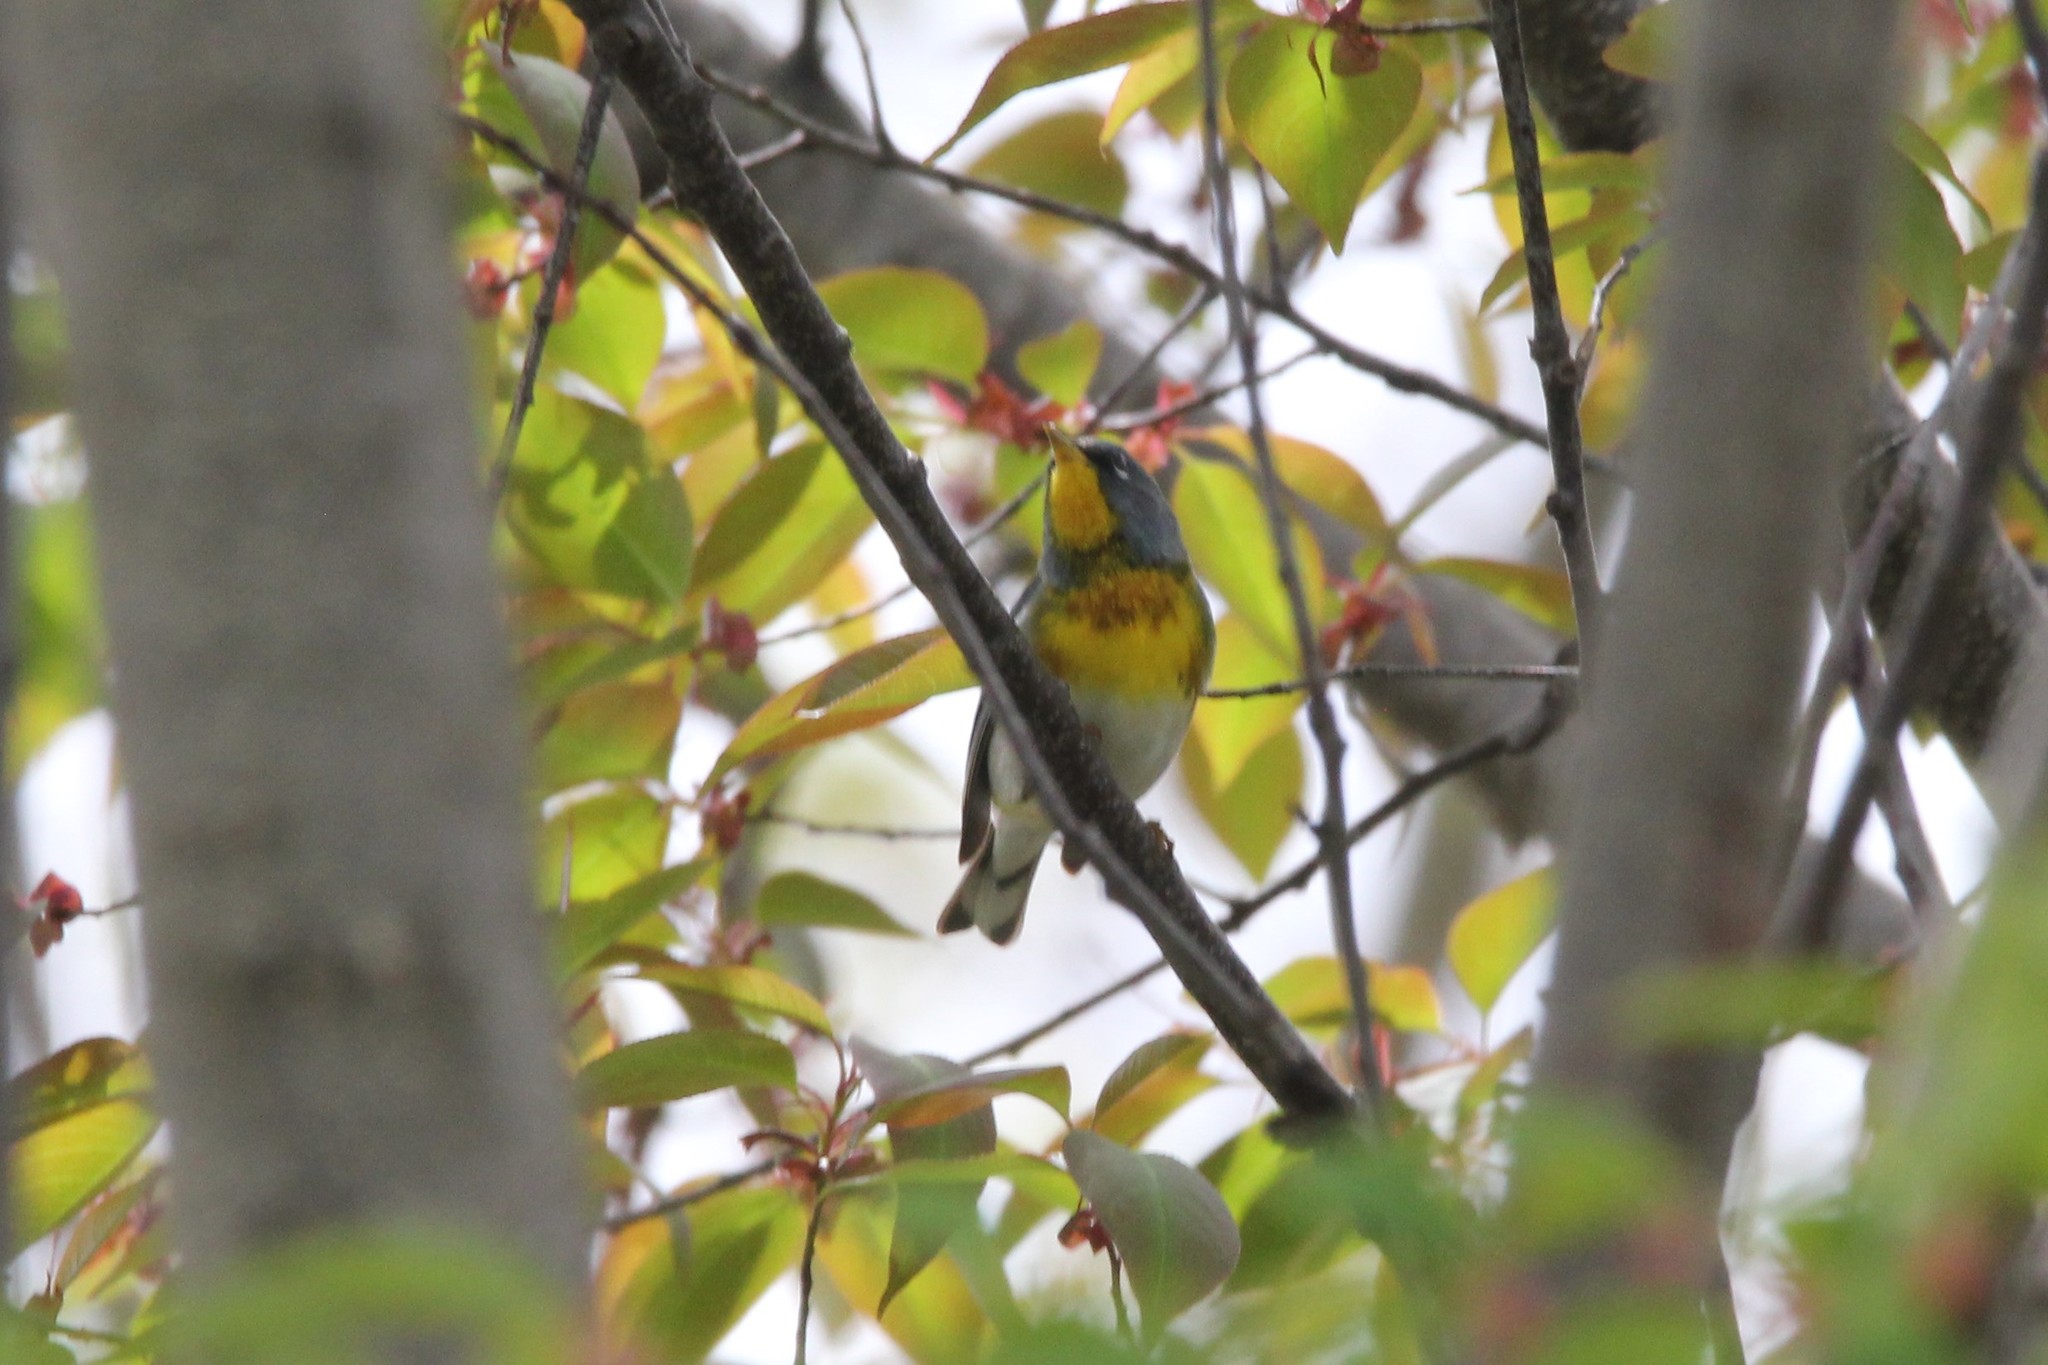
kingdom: Animalia
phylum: Chordata
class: Aves
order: Passeriformes
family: Parulidae
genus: Setophaga
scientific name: Setophaga americana
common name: Northern parula
